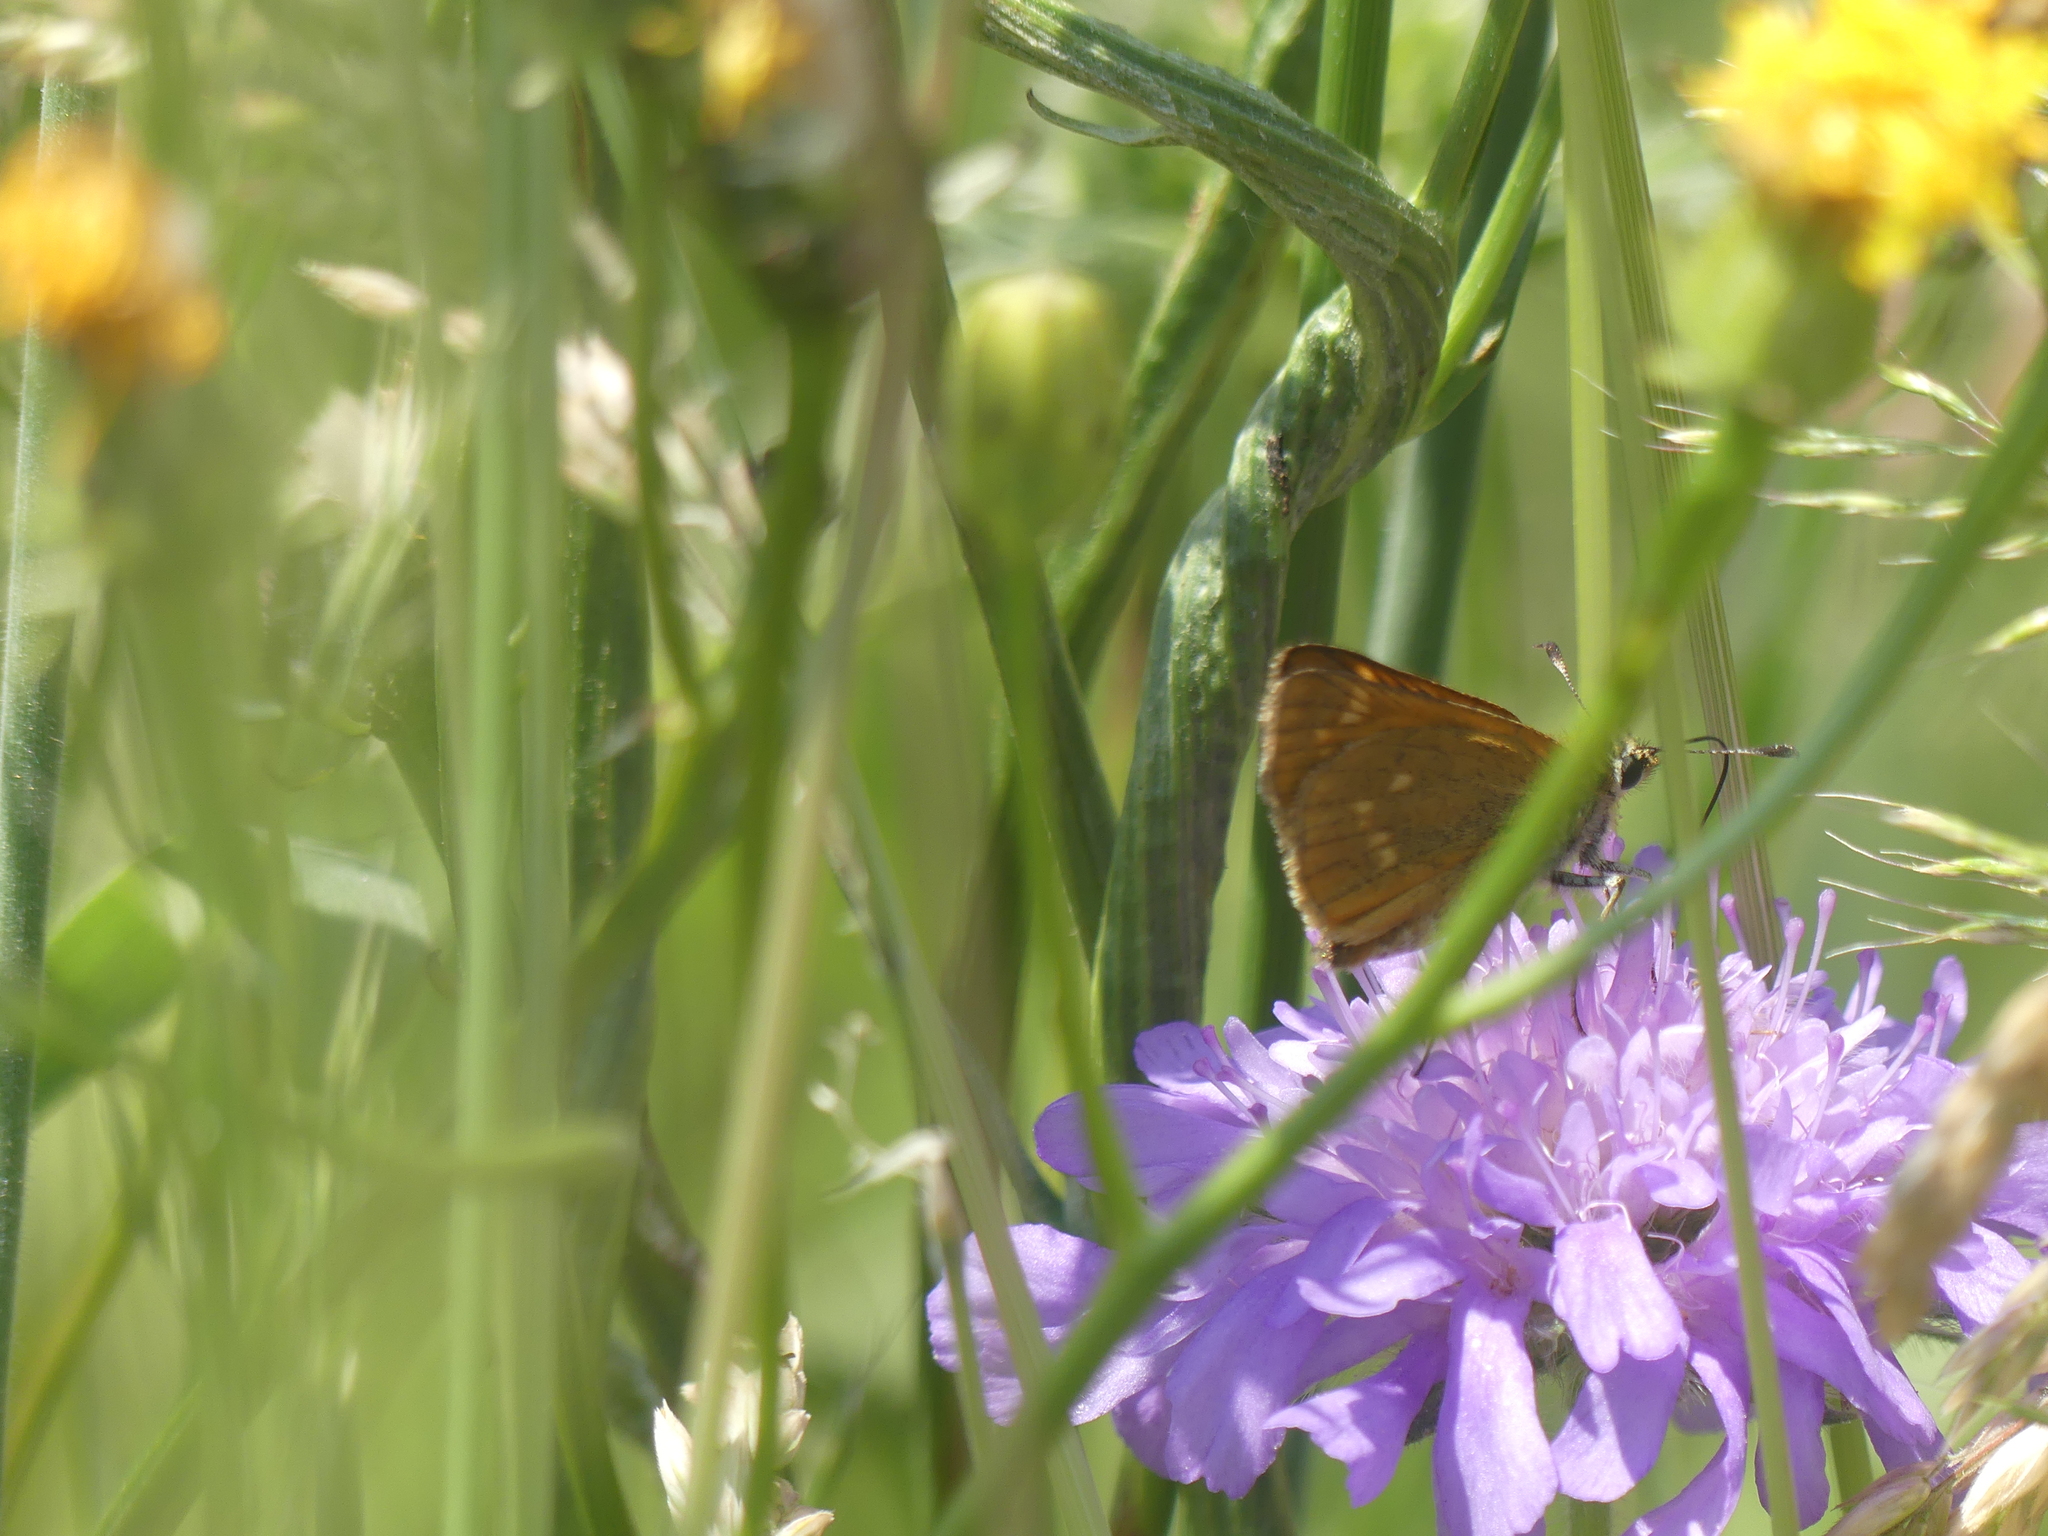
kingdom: Animalia
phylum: Arthropoda
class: Insecta
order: Lepidoptera
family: Hesperiidae
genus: Ochlodes
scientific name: Ochlodes venata
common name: Large skipper
